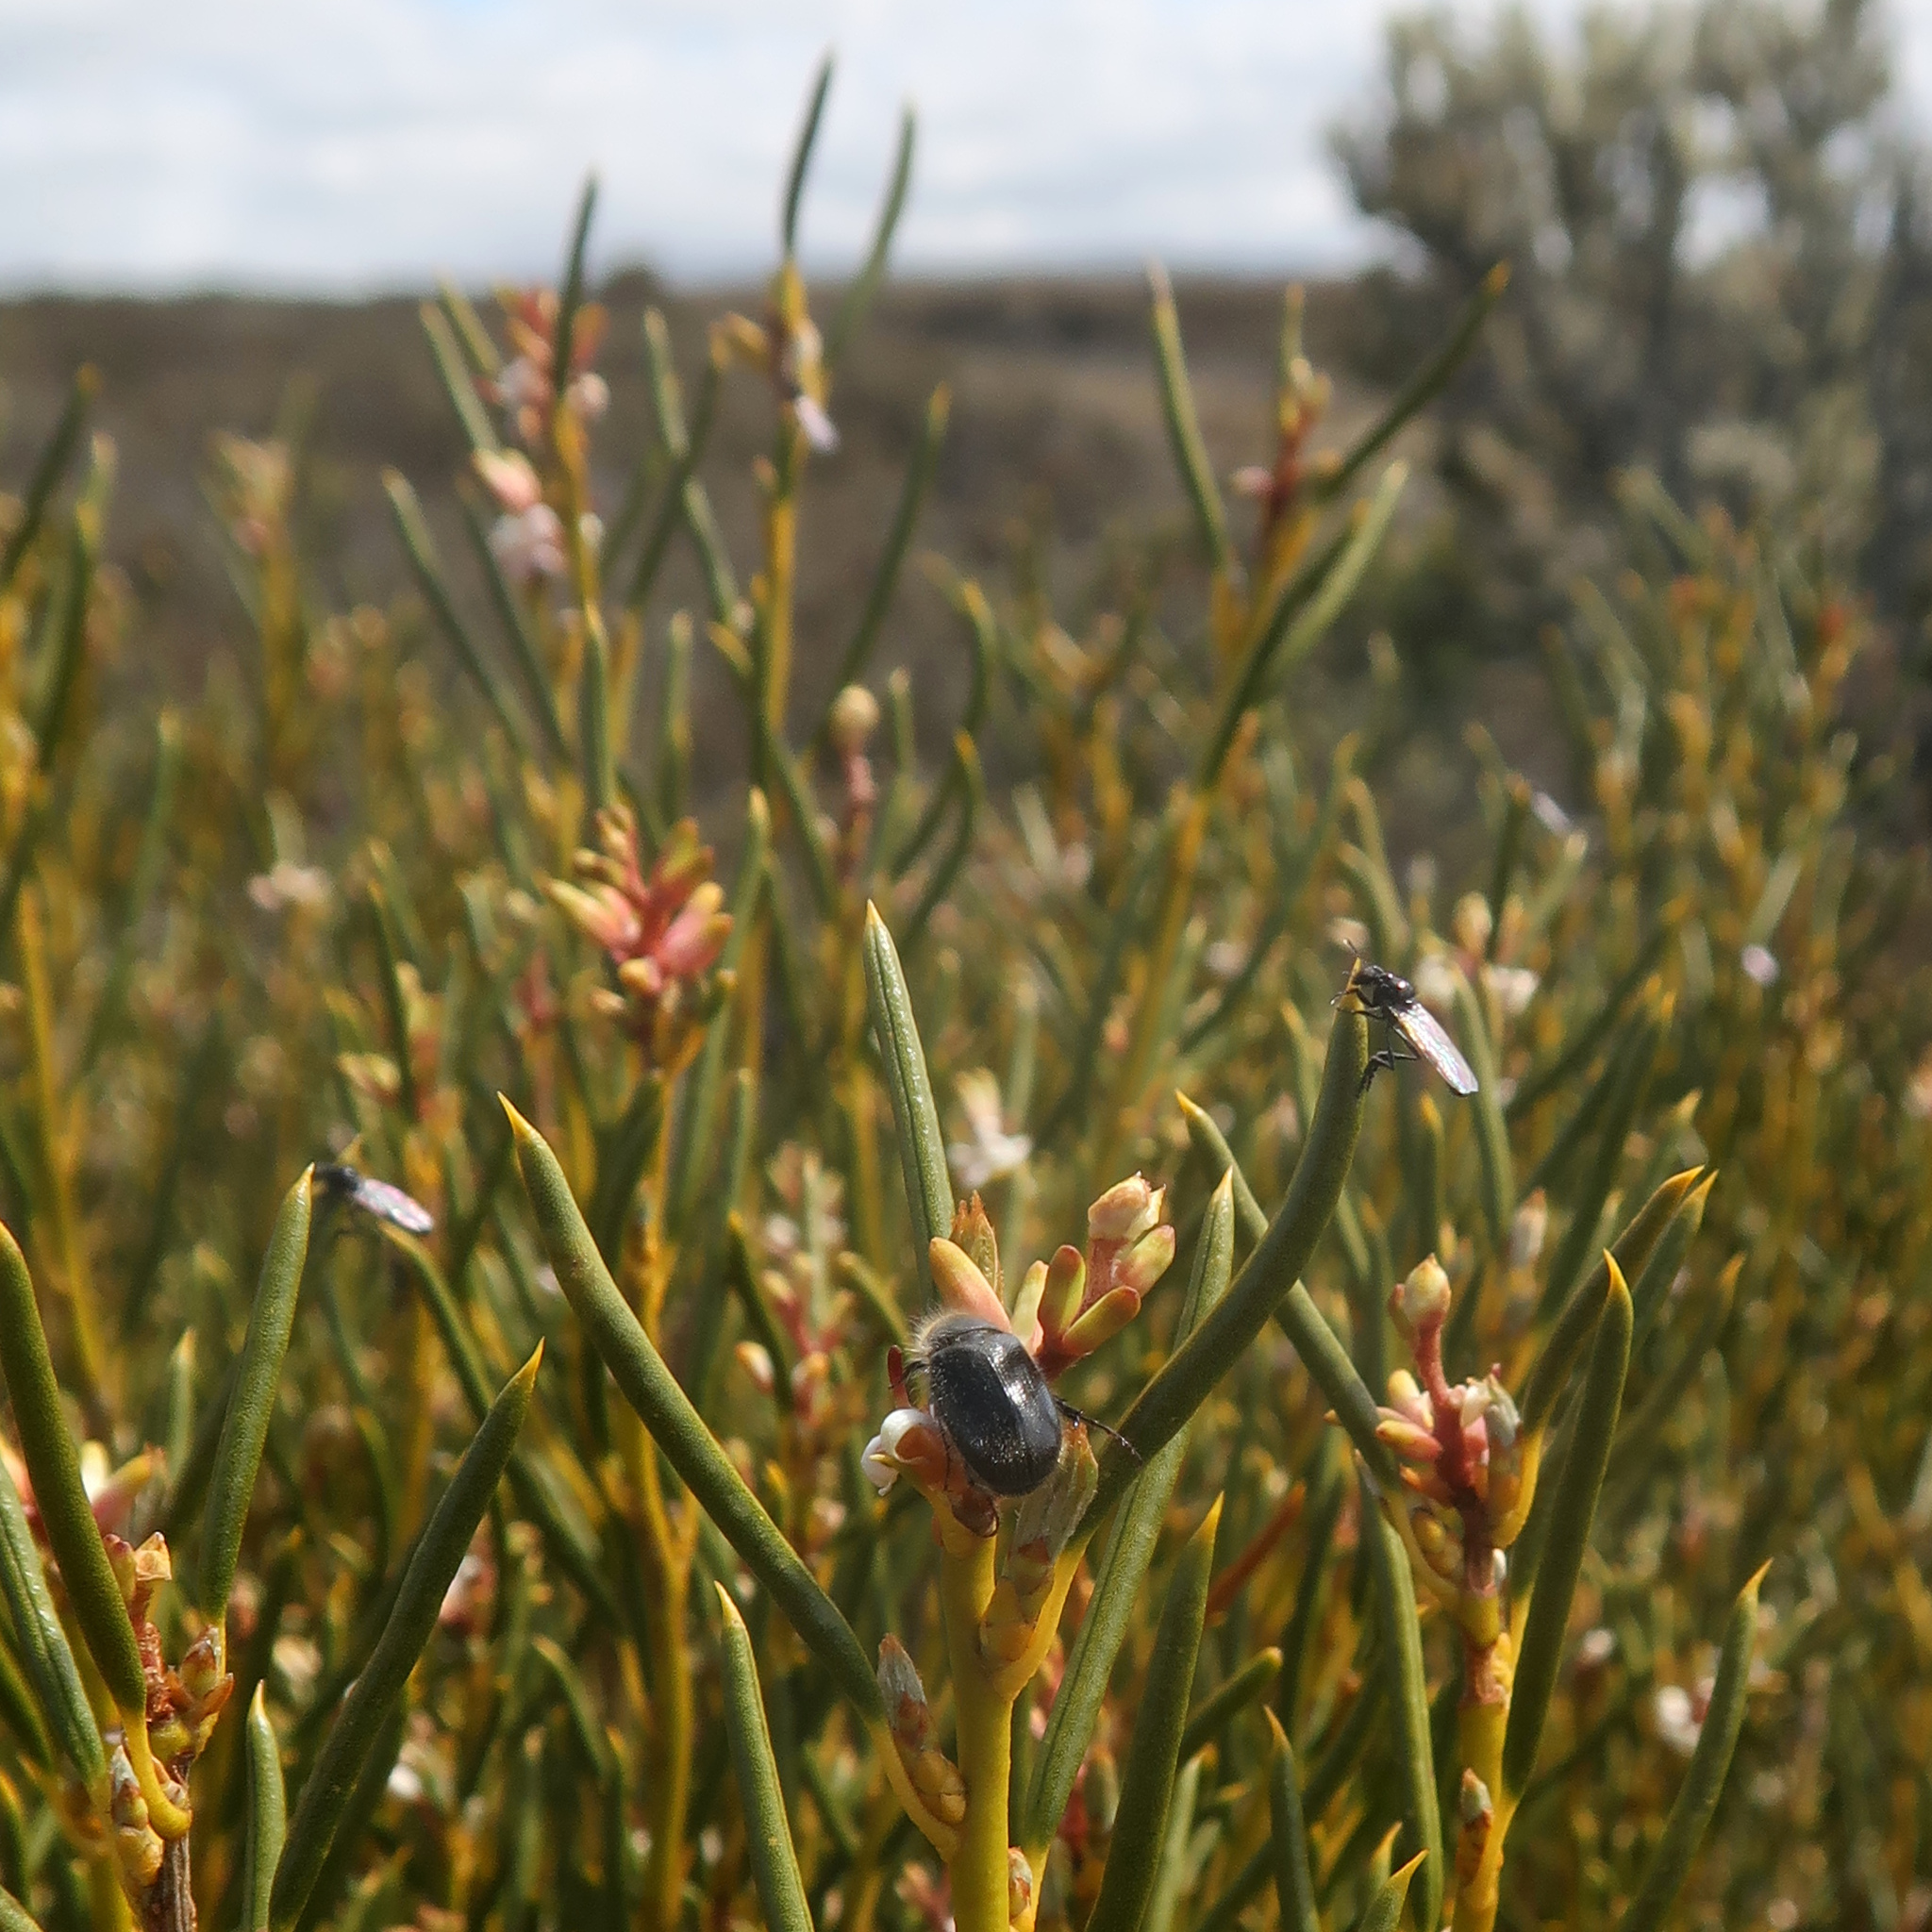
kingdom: Plantae
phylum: Tracheophyta
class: Magnoliopsida
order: Proteales
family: Proteaceae
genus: Orites
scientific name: Orites acicularis
